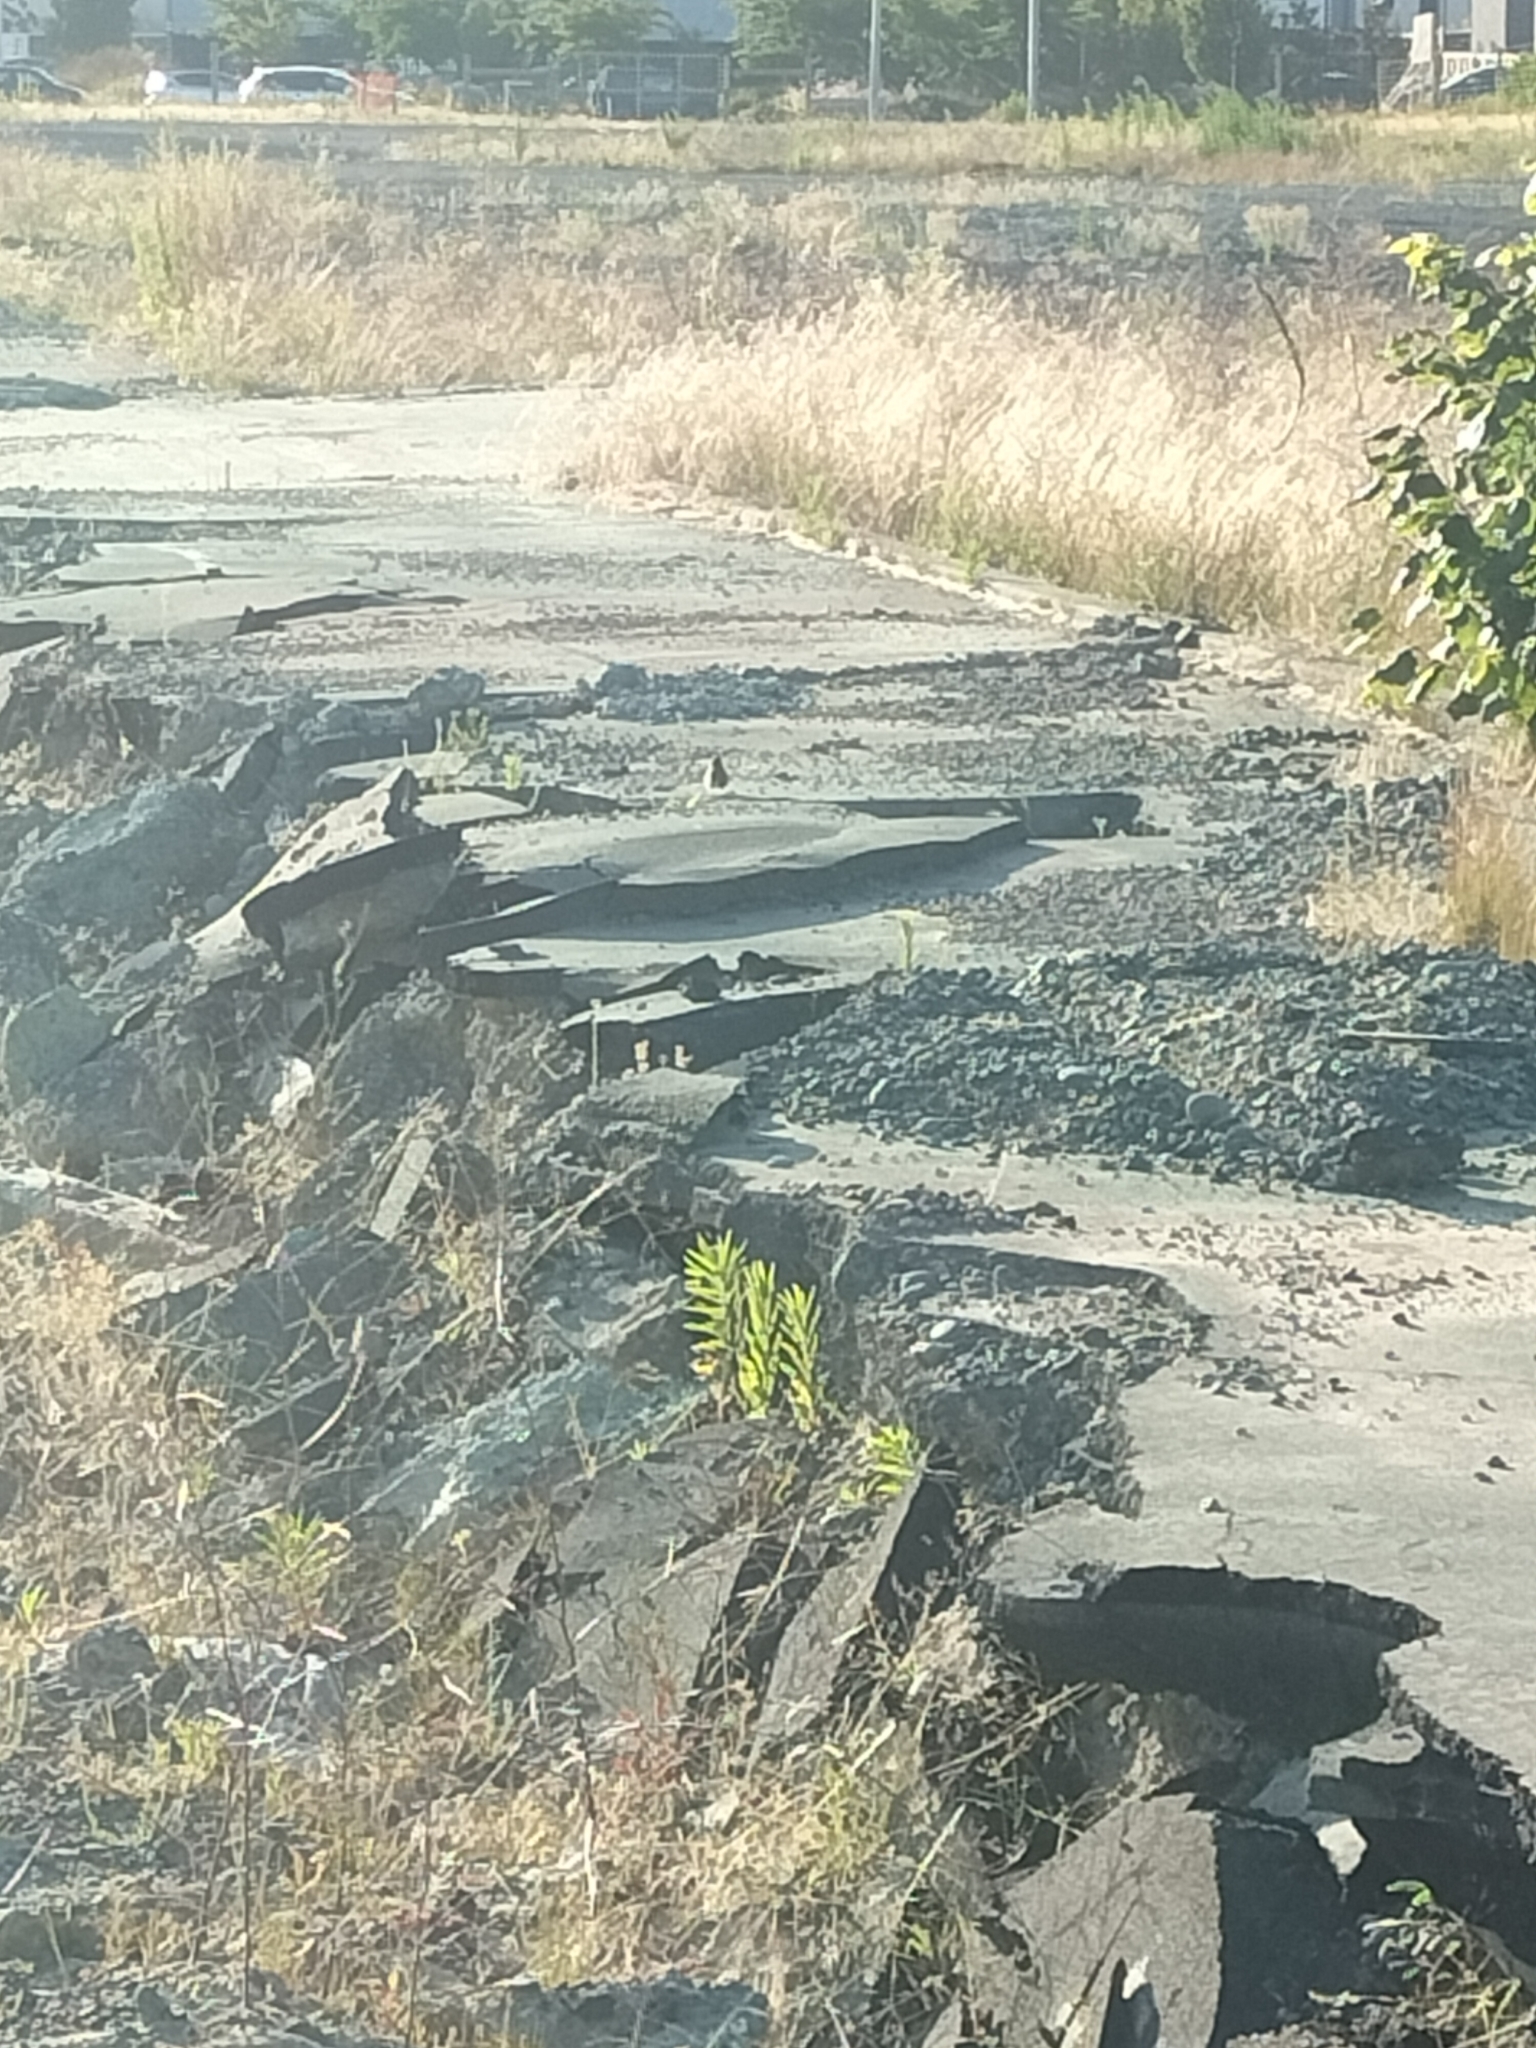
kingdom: Animalia
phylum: Chordata
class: Aves
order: Passeriformes
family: Passeridae
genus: Passer
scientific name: Passer domesticus
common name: House sparrow
